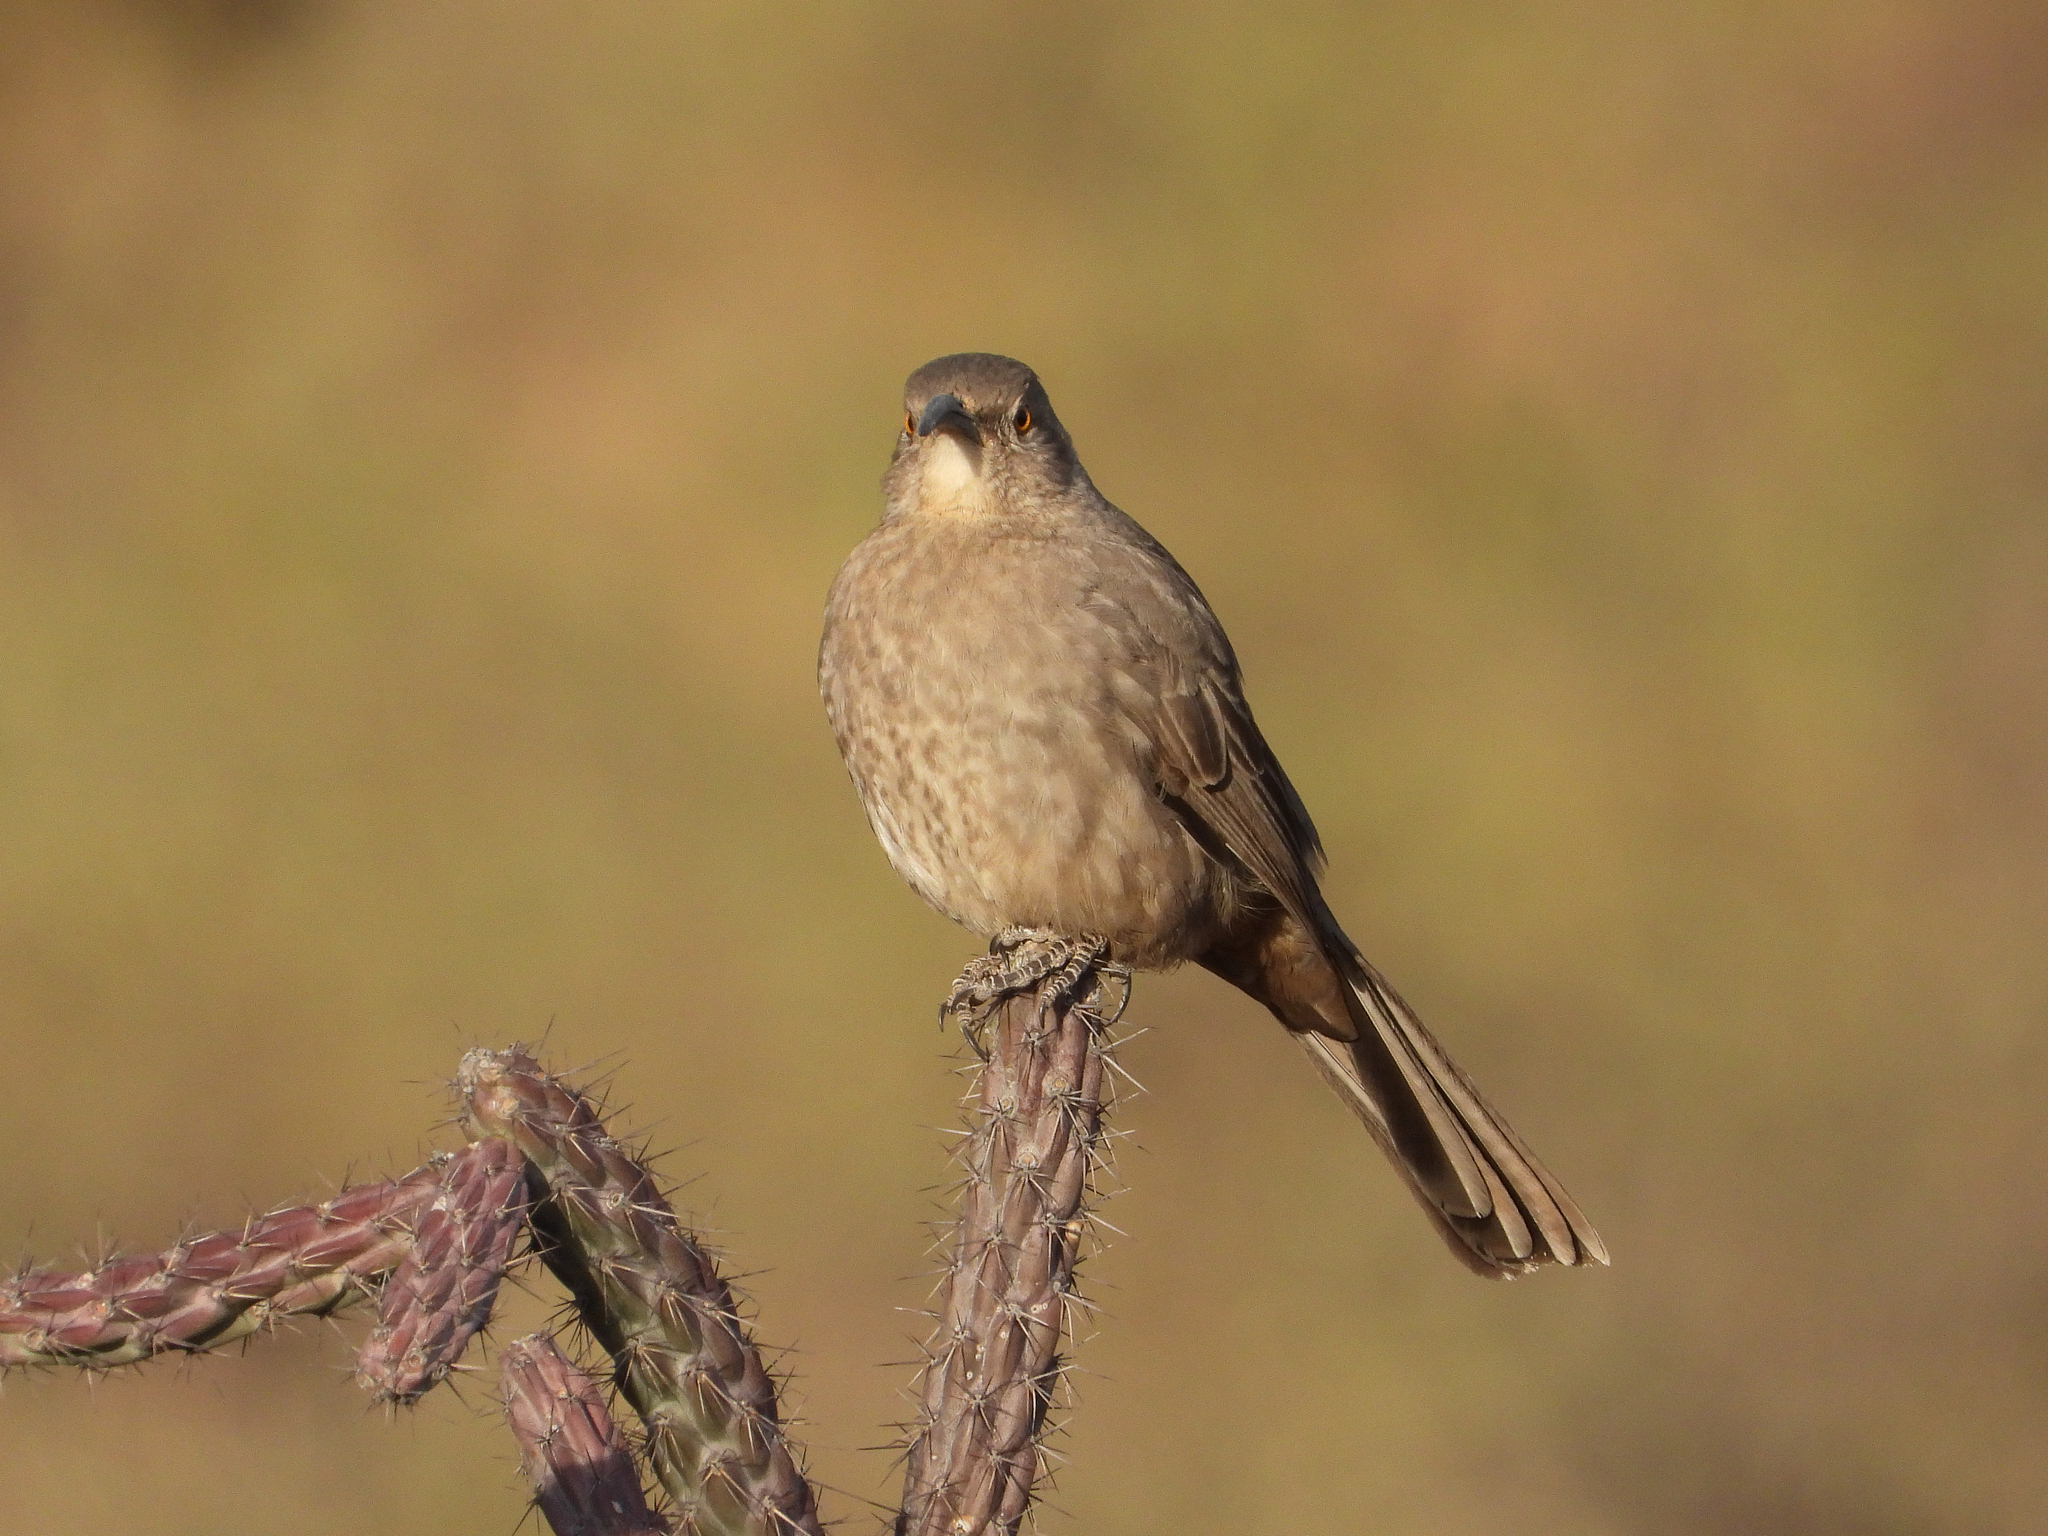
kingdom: Animalia
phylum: Chordata
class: Aves
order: Passeriformes
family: Mimidae
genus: Toxostoma
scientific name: Toxostoma curvirostre
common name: Curve-billed thrasher
